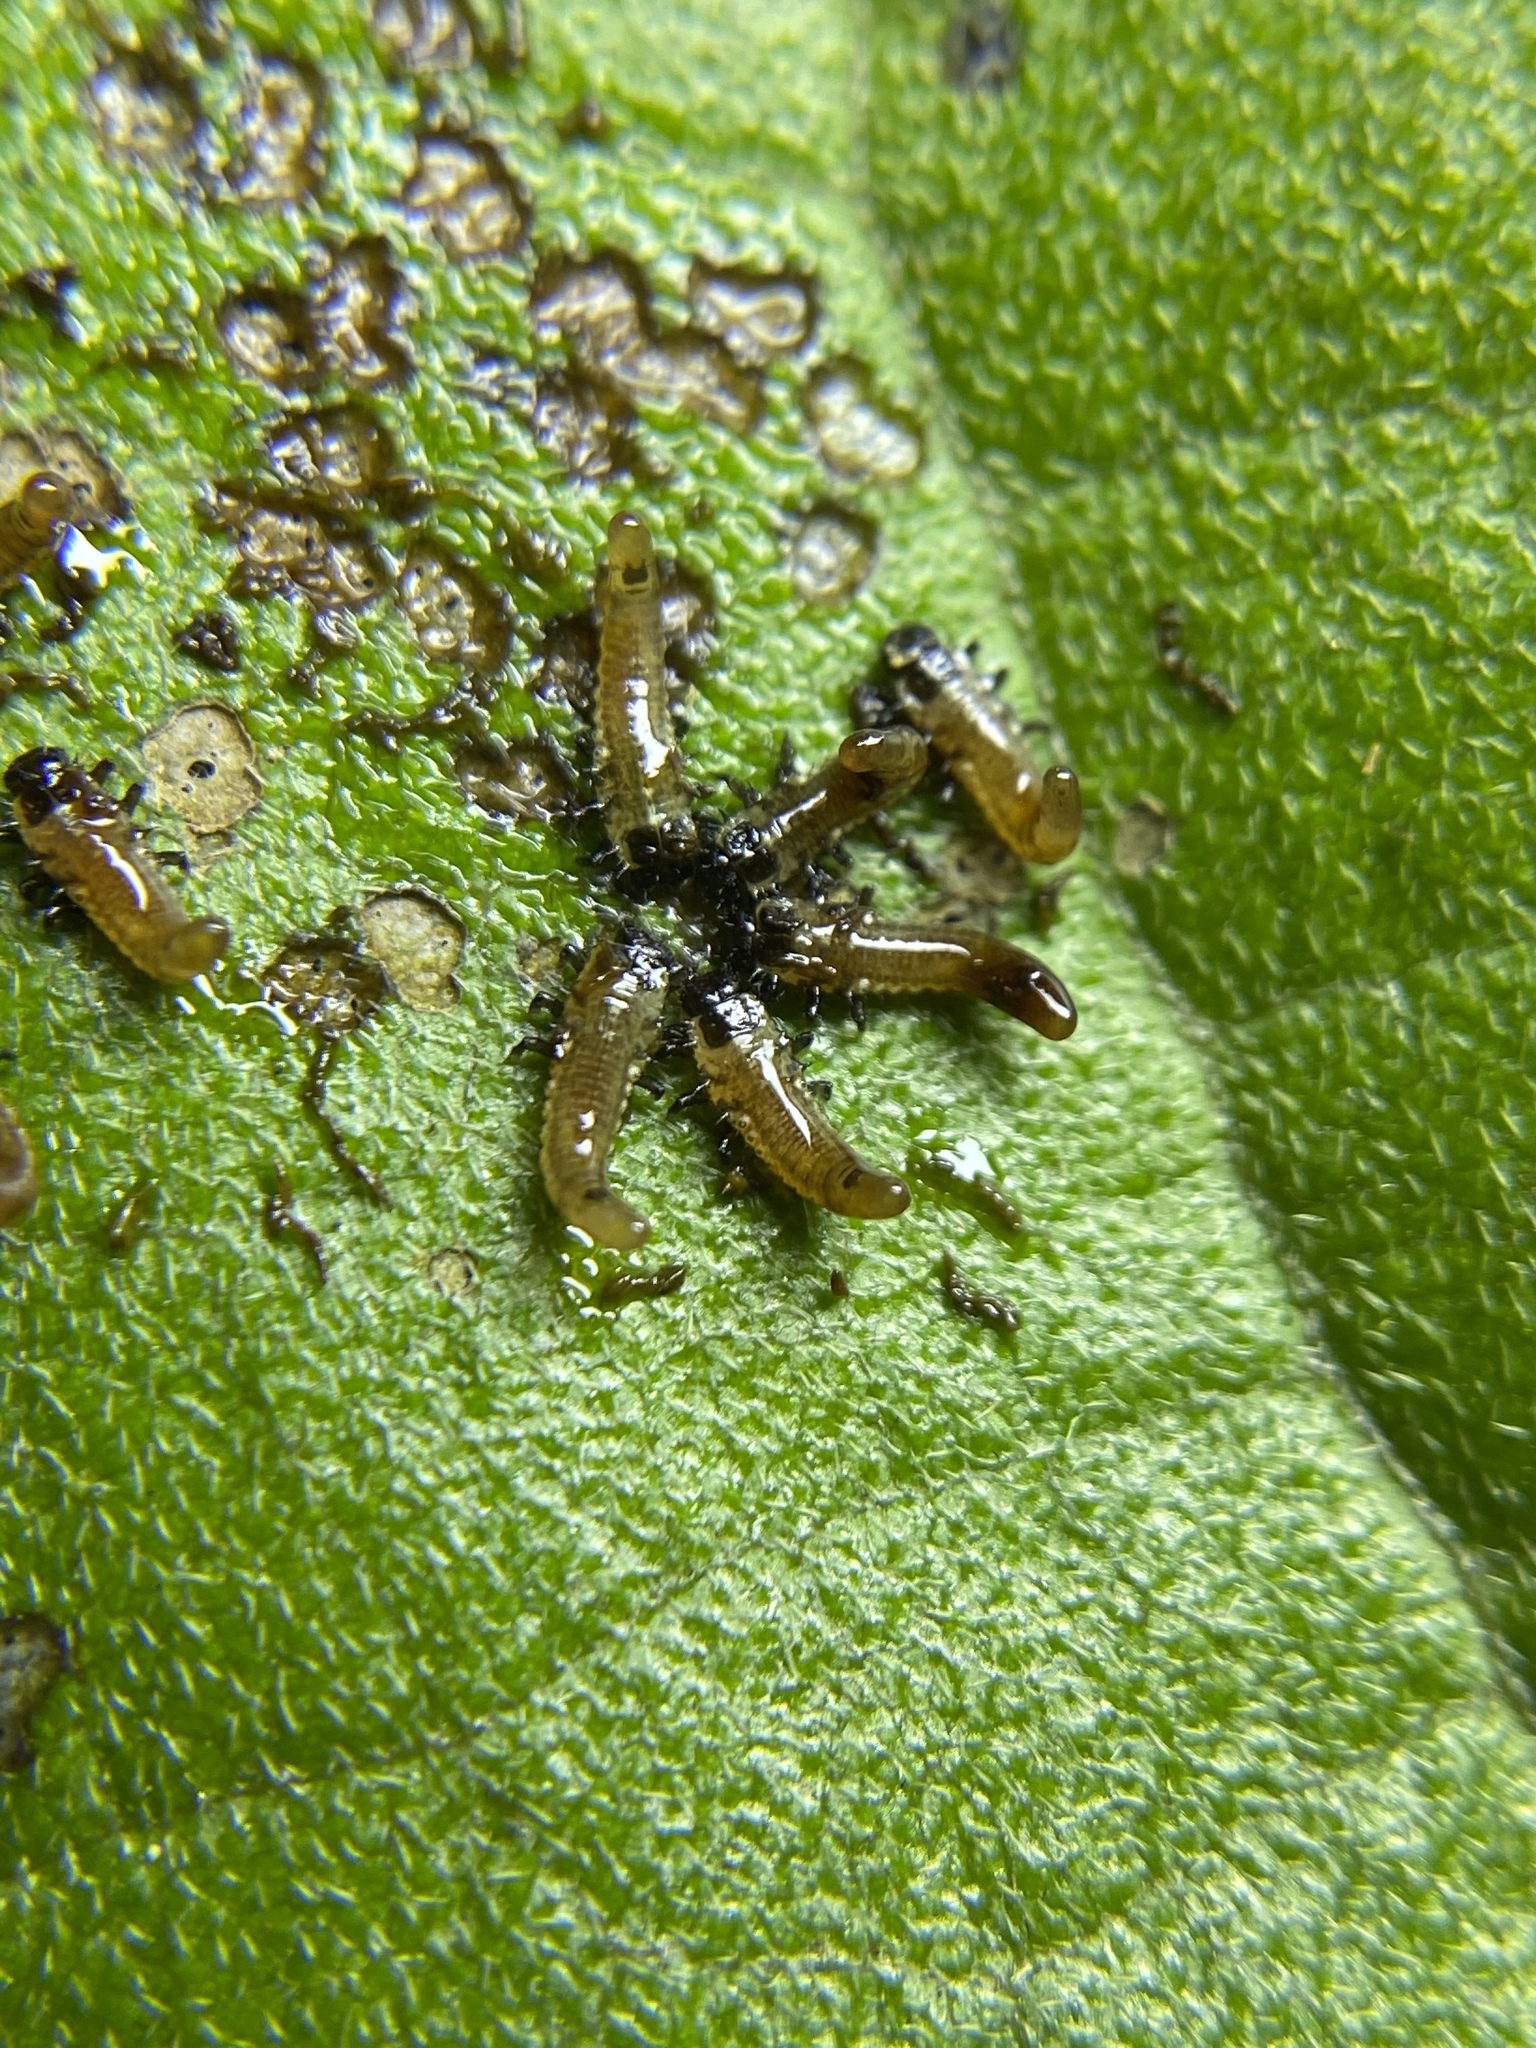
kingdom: Animalia
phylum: Arthropoda
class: Insecta
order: Coleoptera
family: Chrysomelidae
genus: Eurypepla
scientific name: Eurypepla calochroma
